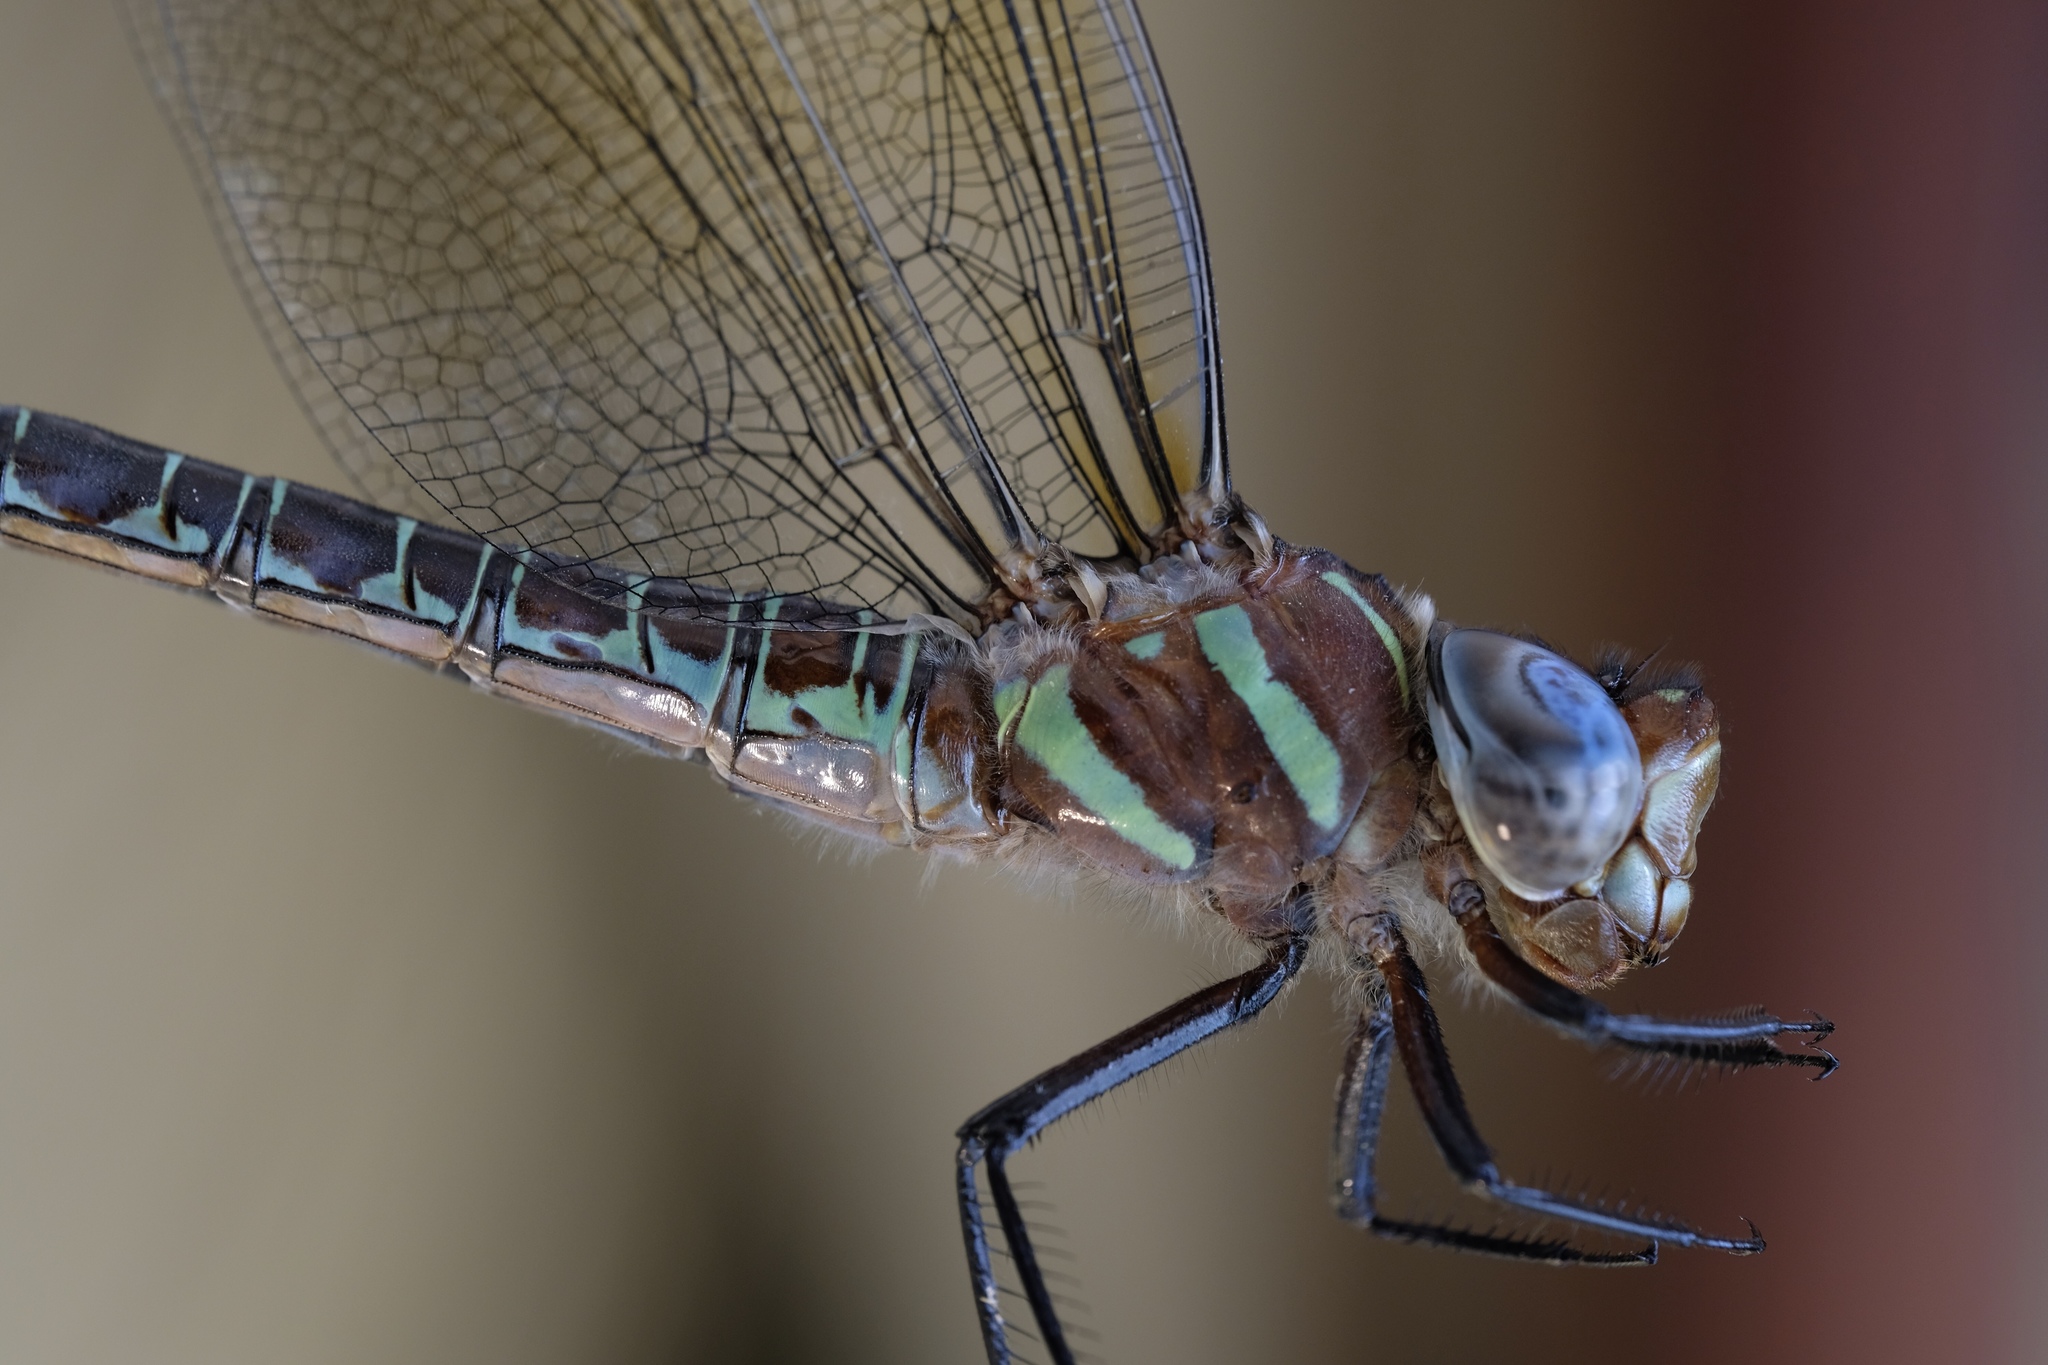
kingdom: Animalia
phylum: Arthropoda
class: Insecta
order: Odonata
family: Aeshnidae
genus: Epiaeschna
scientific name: Epiaeschna heros
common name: Swamp darner
